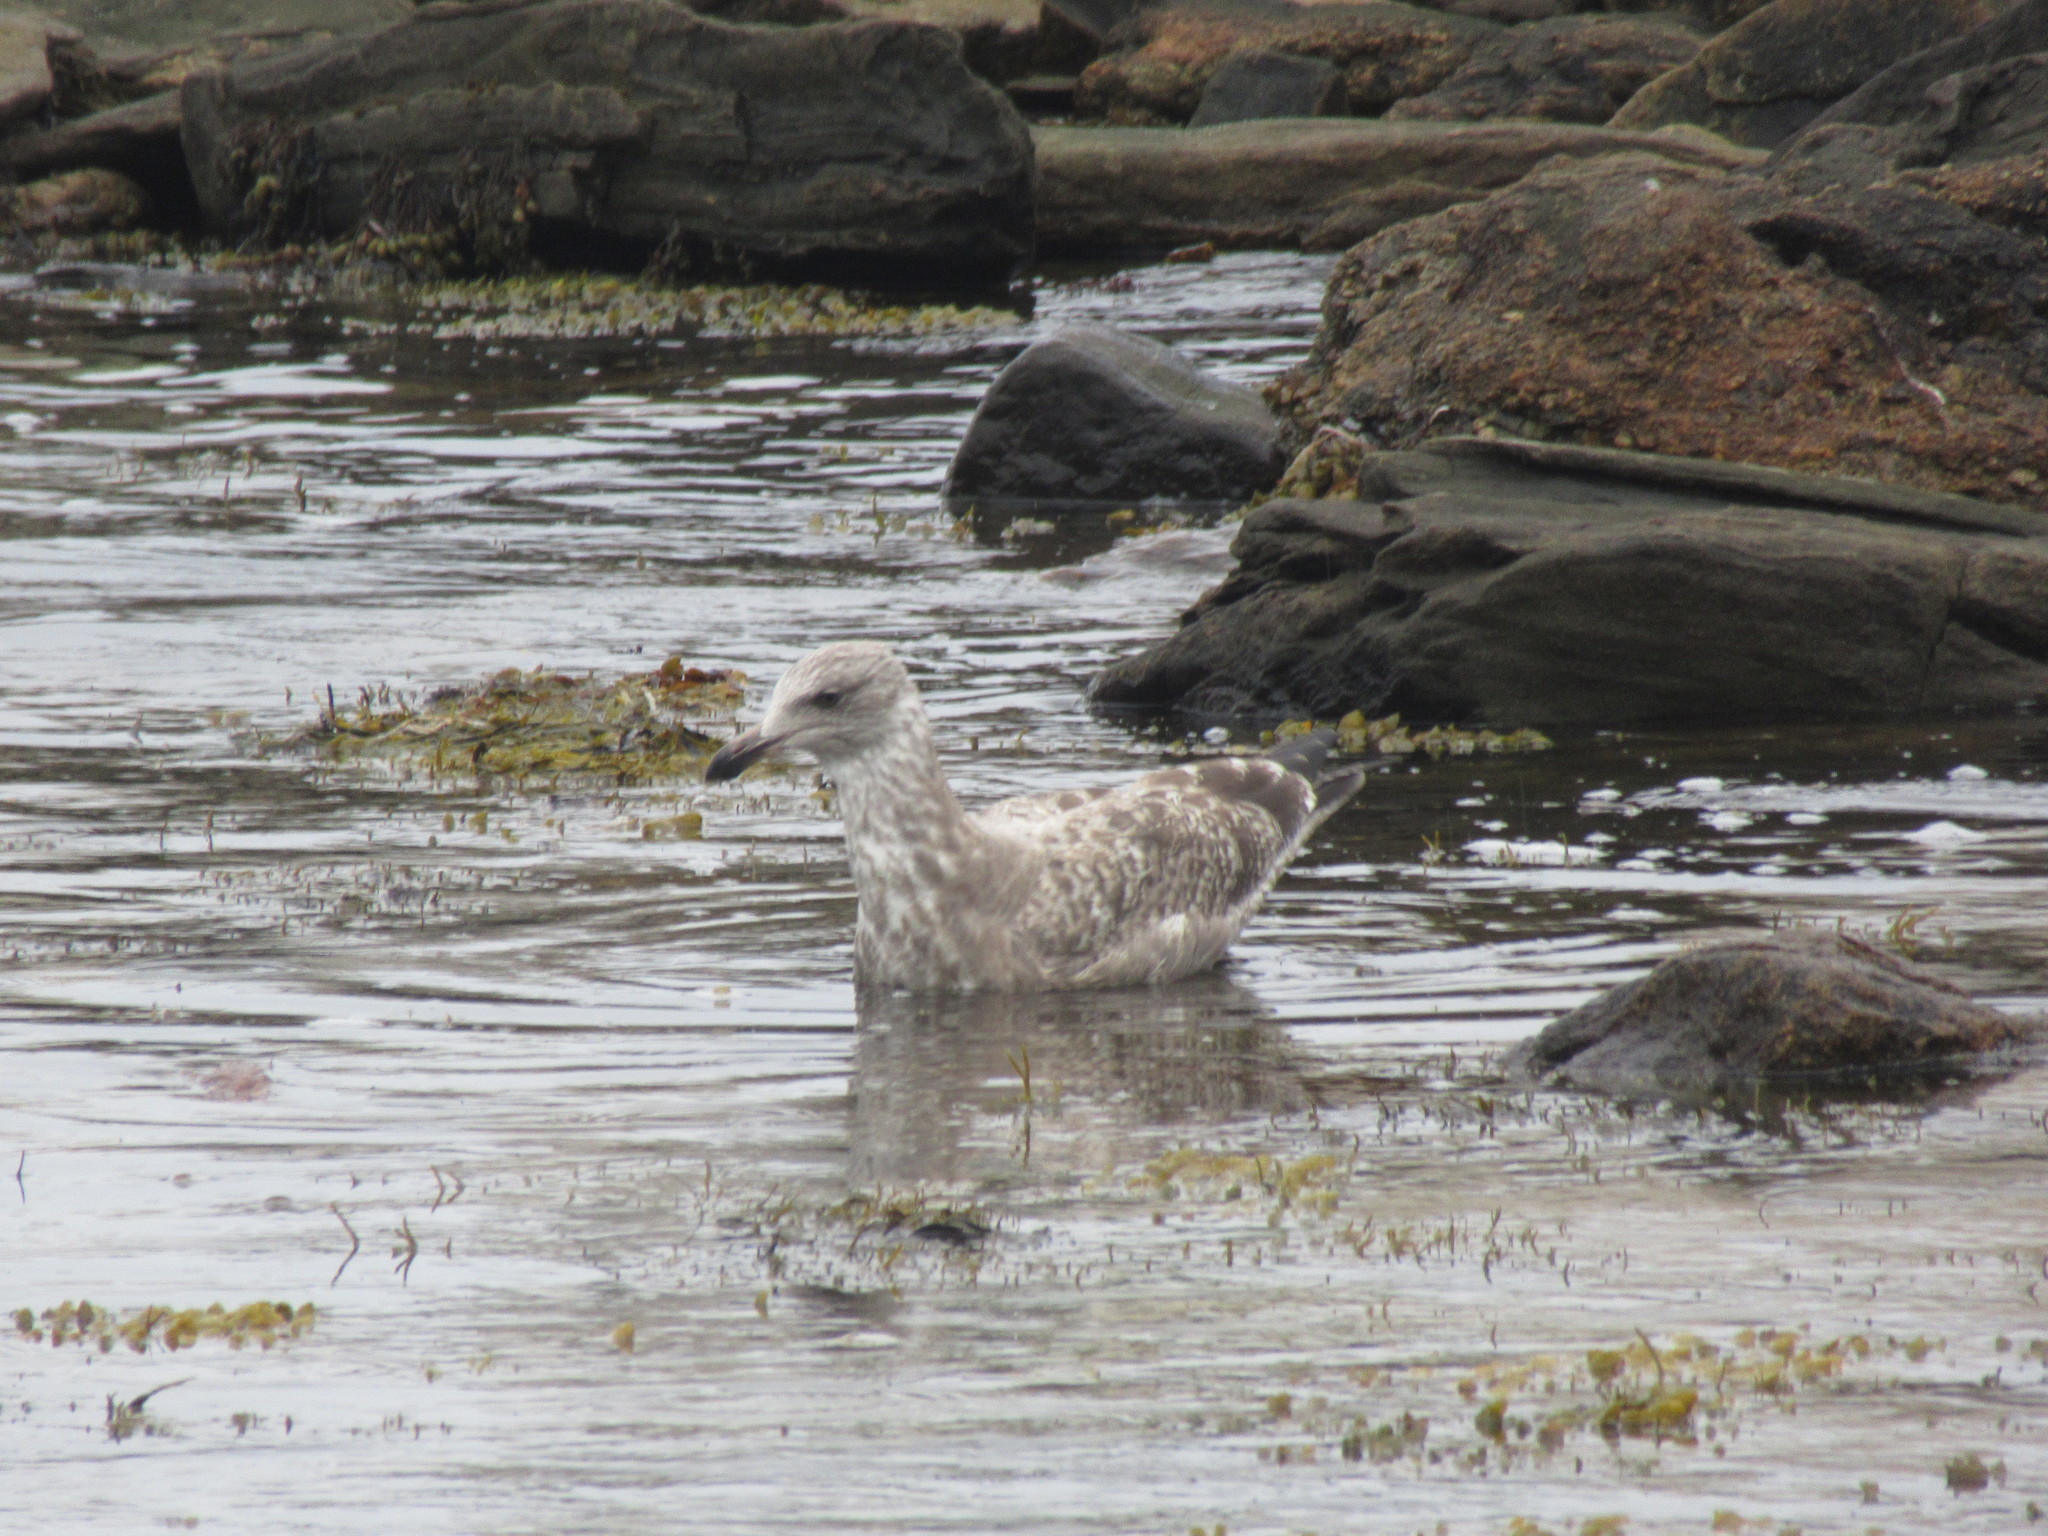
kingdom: Animalia
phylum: Chordata
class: Aves
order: Charadriiformes
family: Laridae
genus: Larus
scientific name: Larus argentatus
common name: Herring gull
